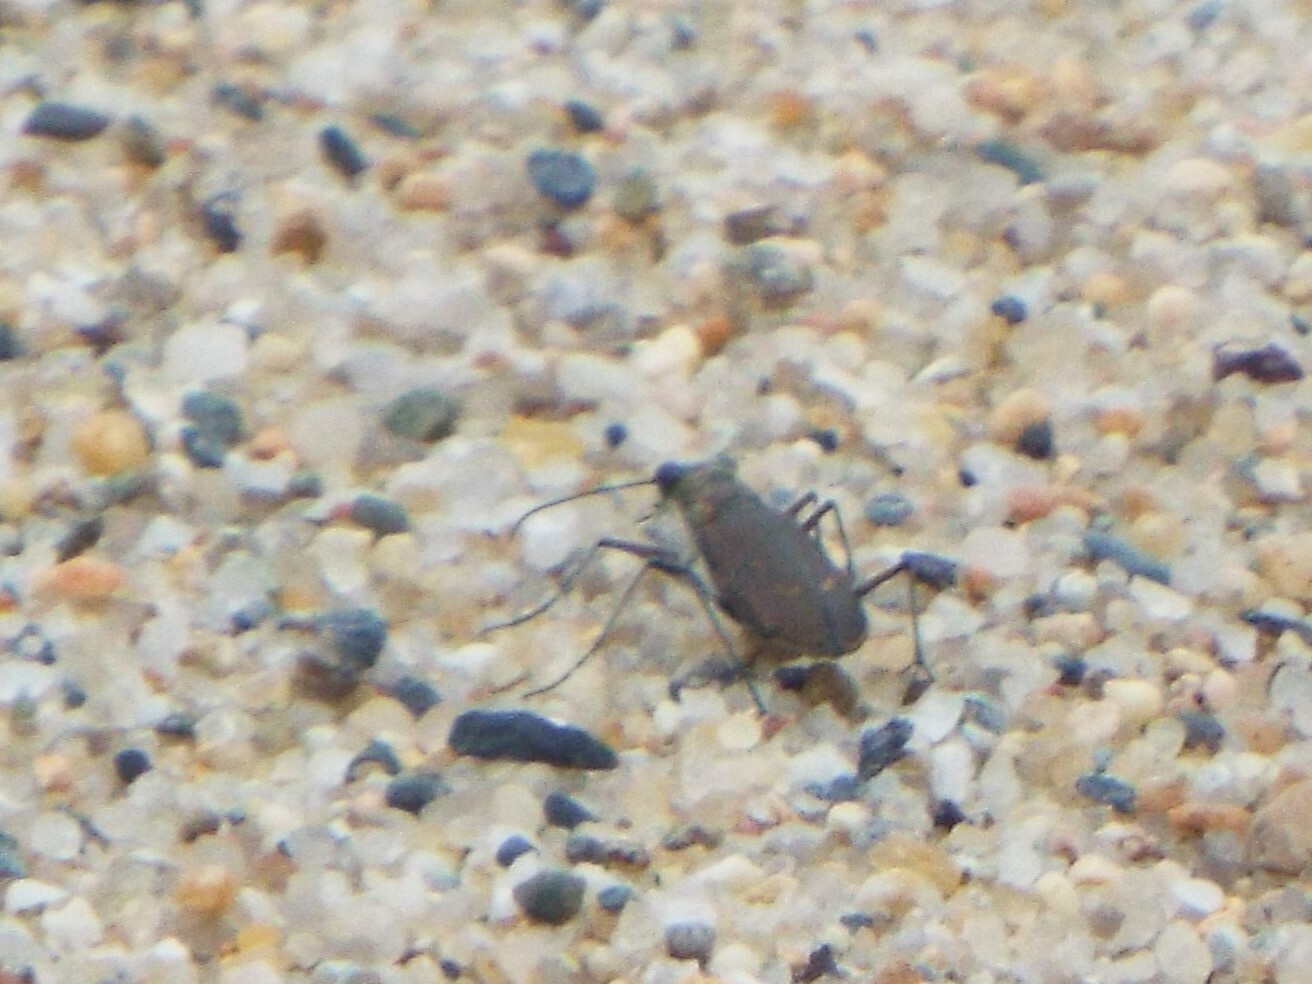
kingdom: Animalia
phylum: Arthropoda
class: Insecta
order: Coleoptera
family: Carabidae
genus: Cicindela
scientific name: Cicindela hirticollis
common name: Hairy-necked tiger beetle
